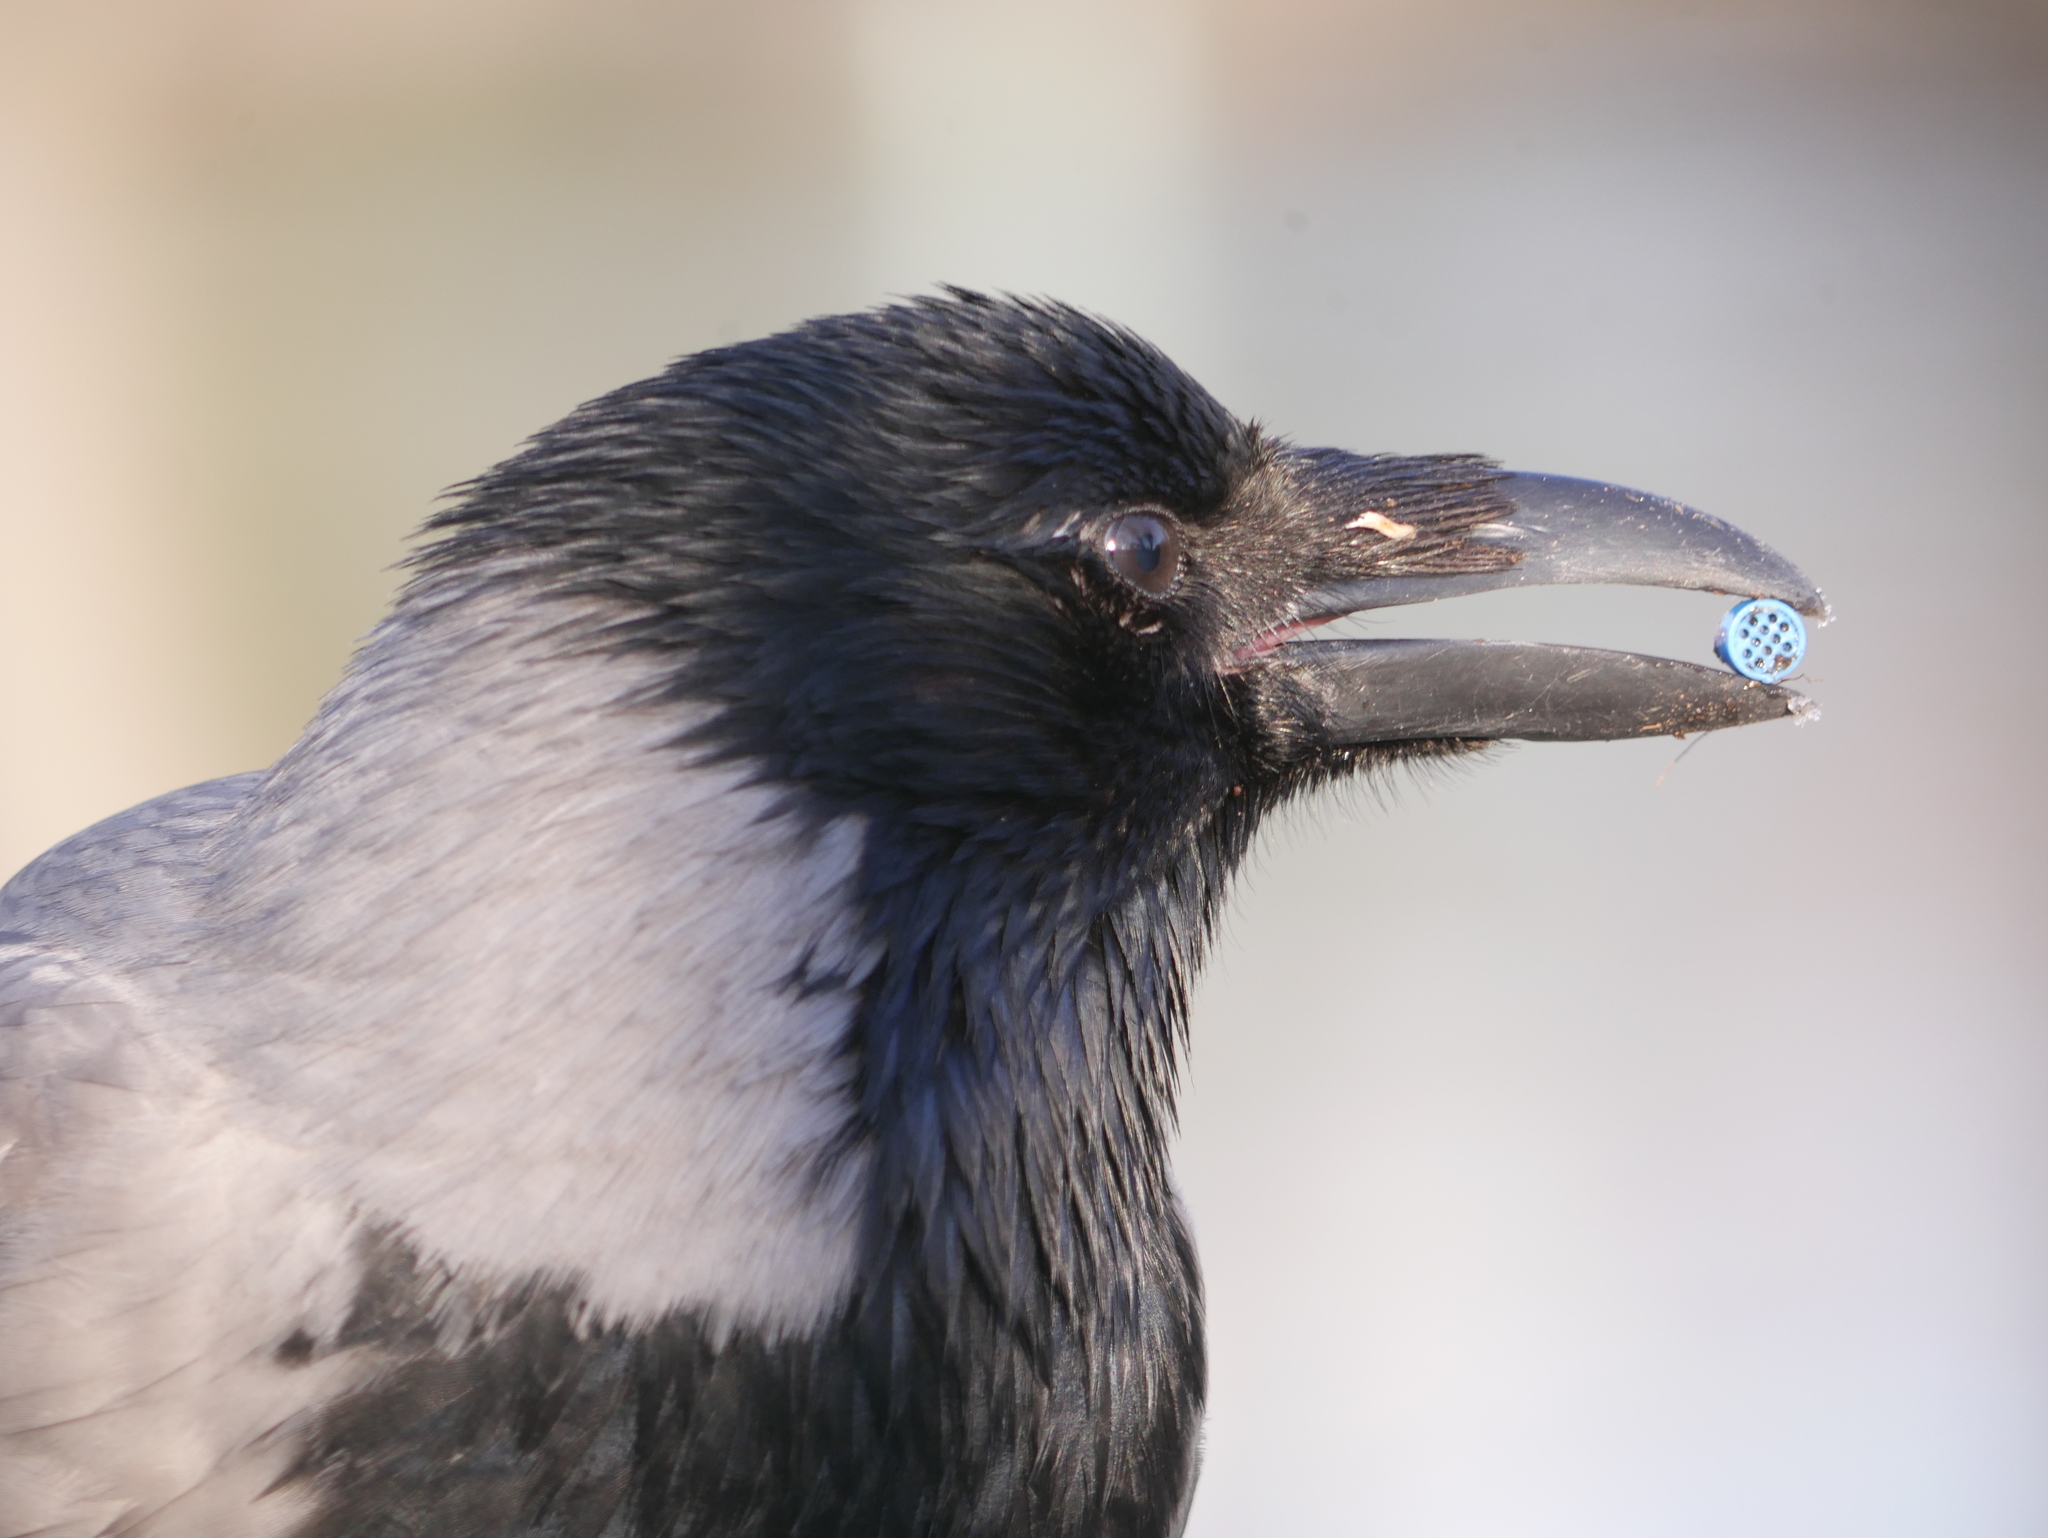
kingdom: Animalia
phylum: Chordata
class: Aves
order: Passeriformes
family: Corvidae
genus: Corvus
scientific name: Corvus cornix
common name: Hooded crow
